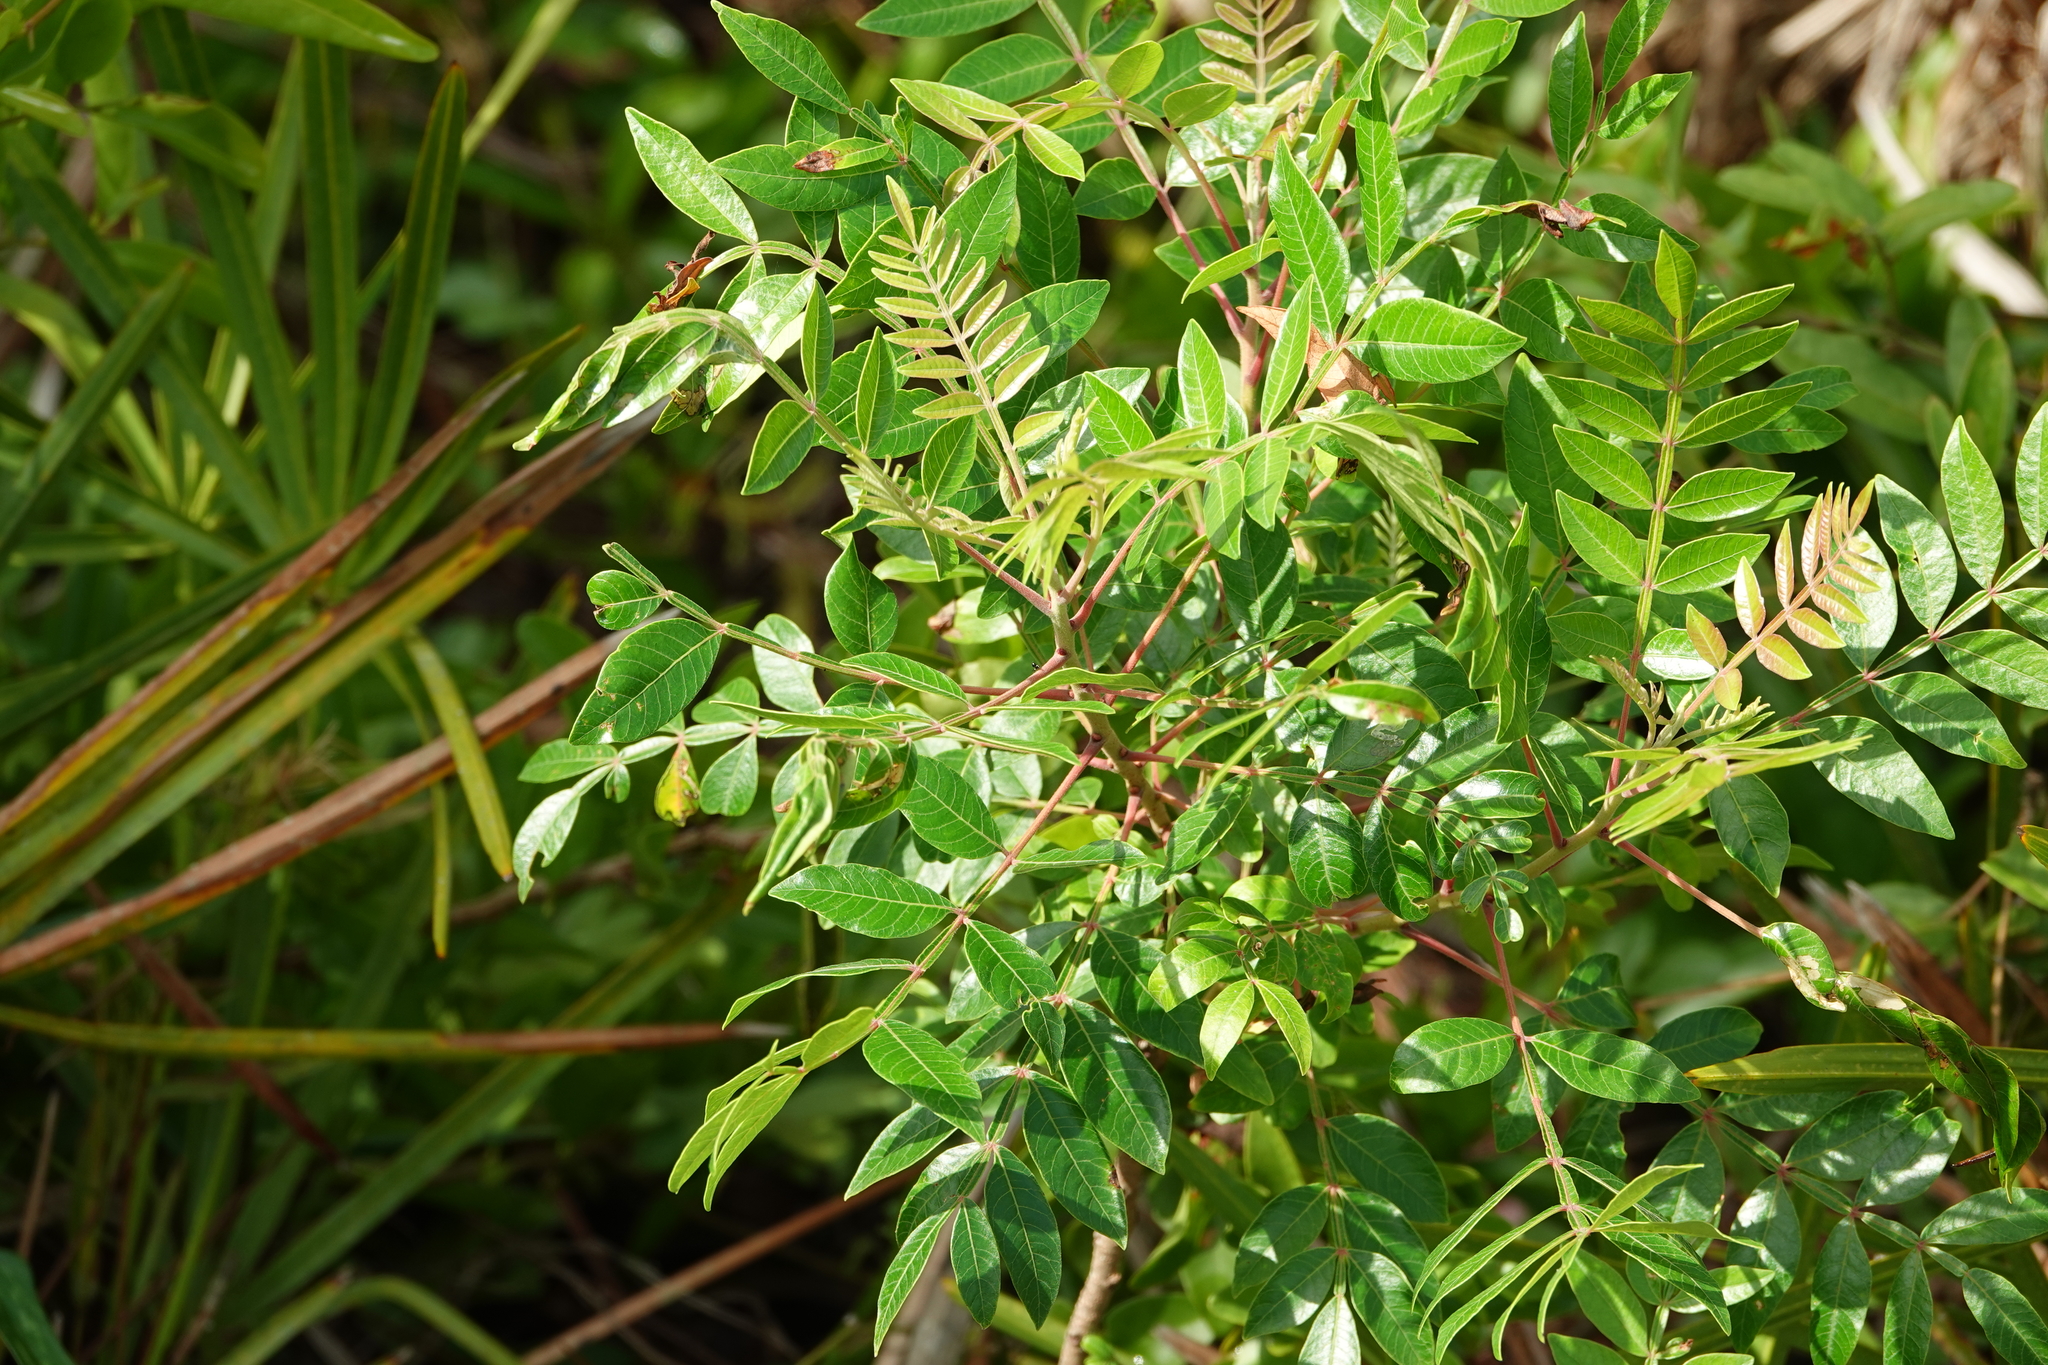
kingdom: Plantae
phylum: Tracheophyta
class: Magnoliopsida
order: Sapindales
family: Anacardiaceae
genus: Rhus
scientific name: Rhus copallina
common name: Shining sumac
